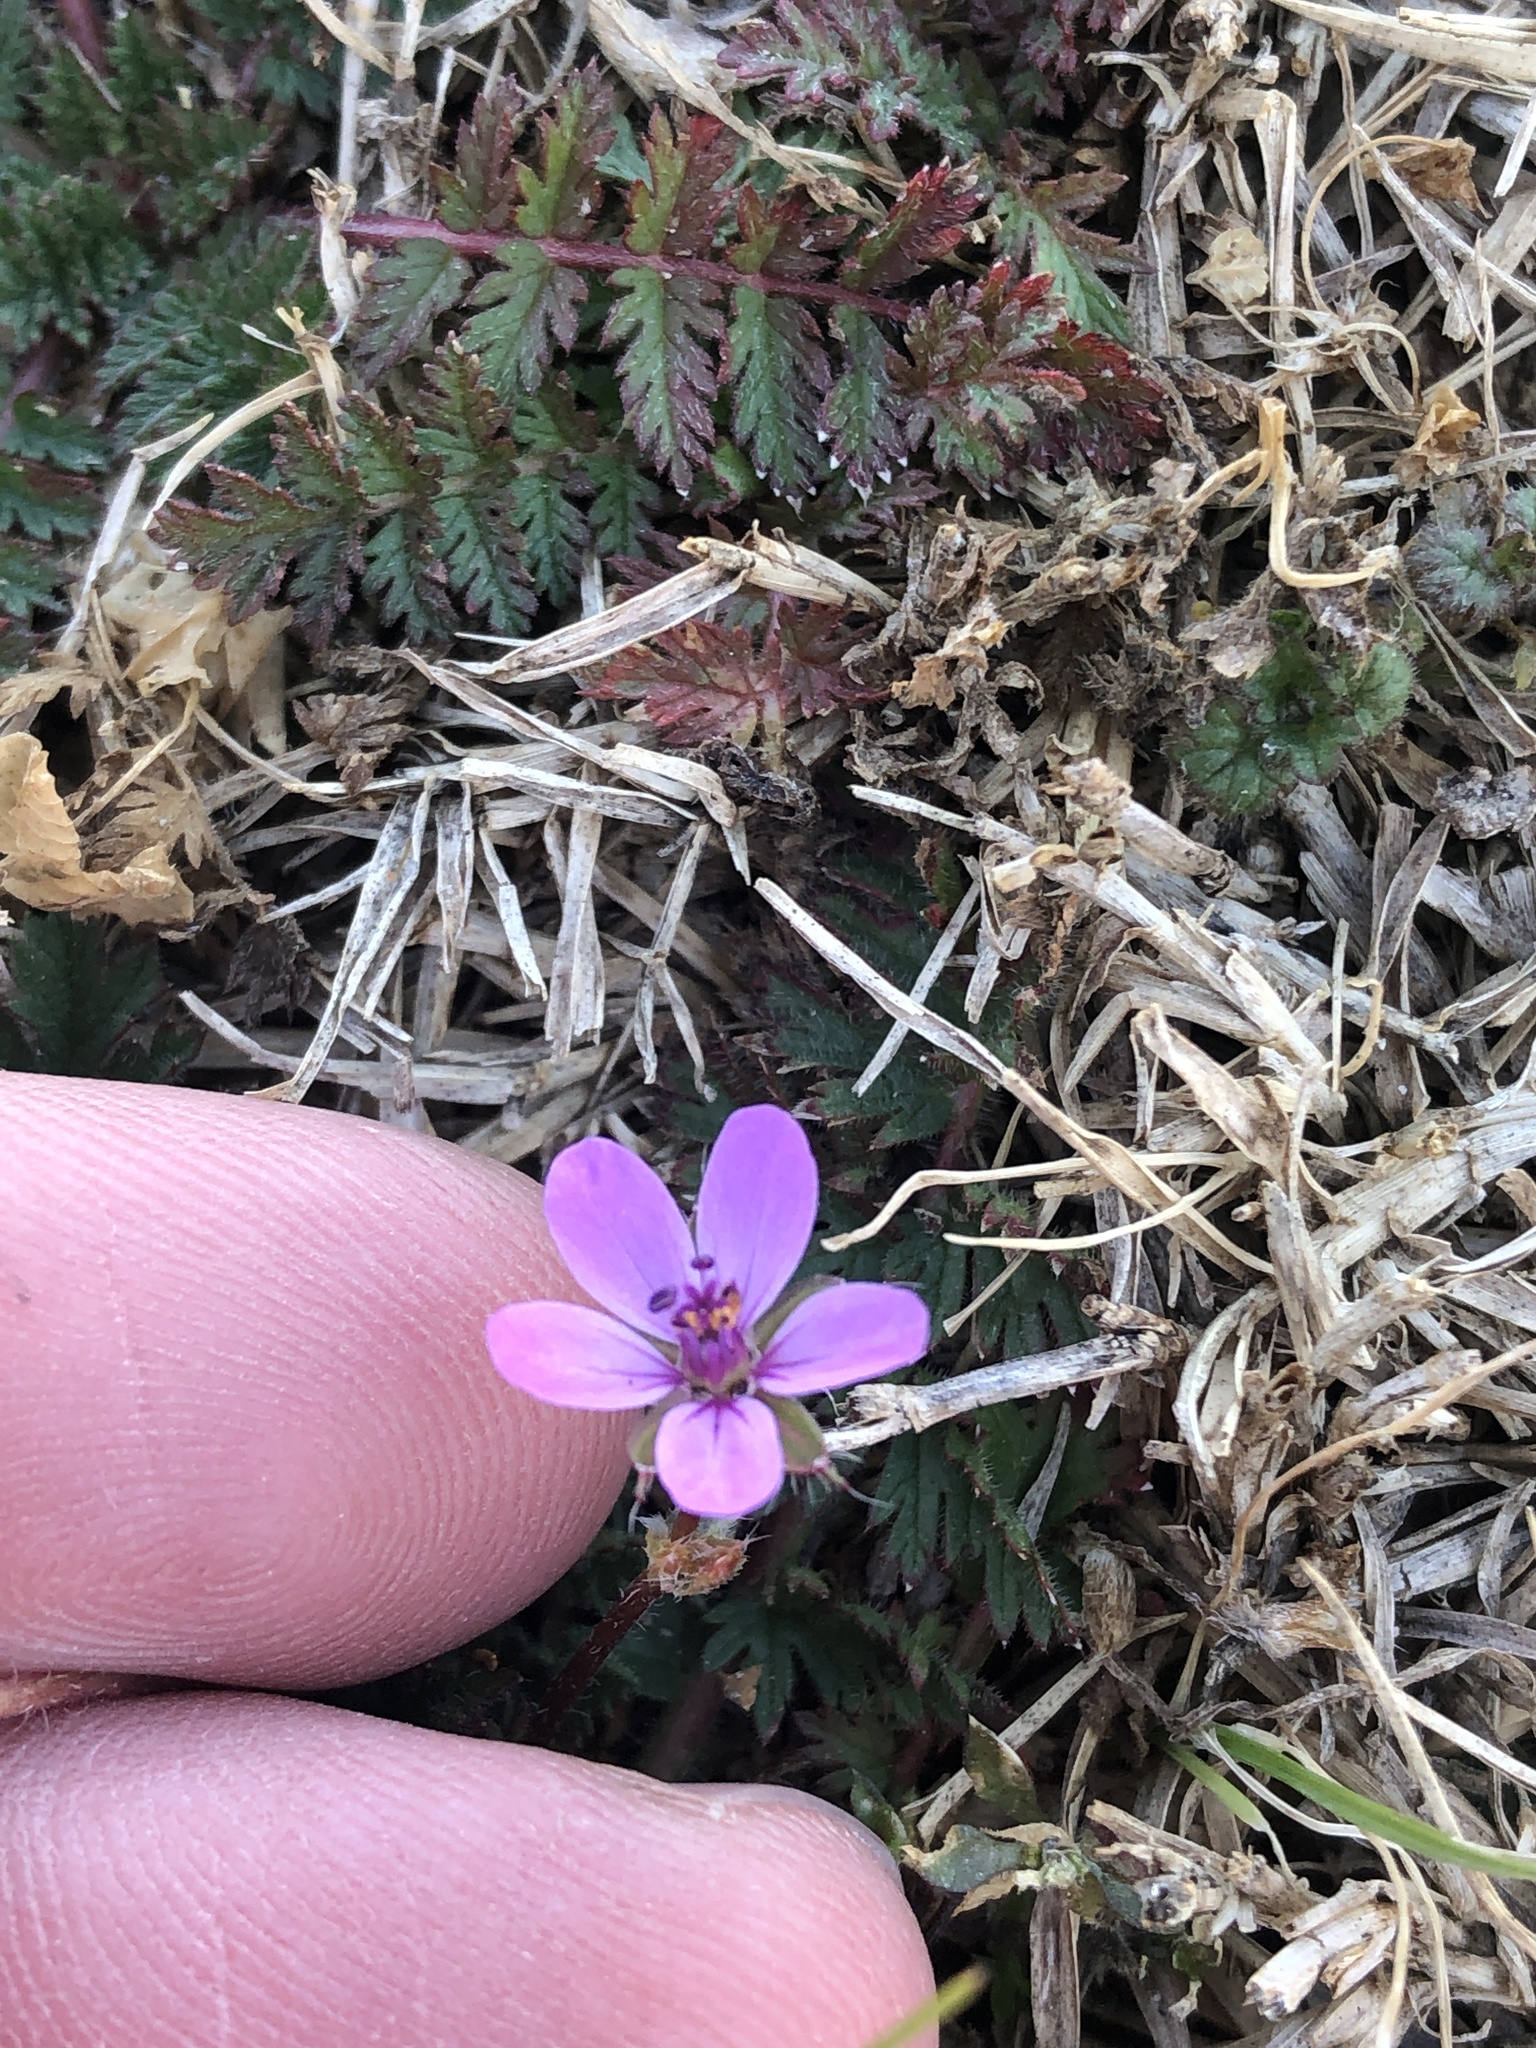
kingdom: Plantae
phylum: Tracheophyta
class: Magnoliopsida
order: Geraniales
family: Geraniaceae
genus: Erodium
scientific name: Erodium cicutarium
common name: Common stork's-bill
